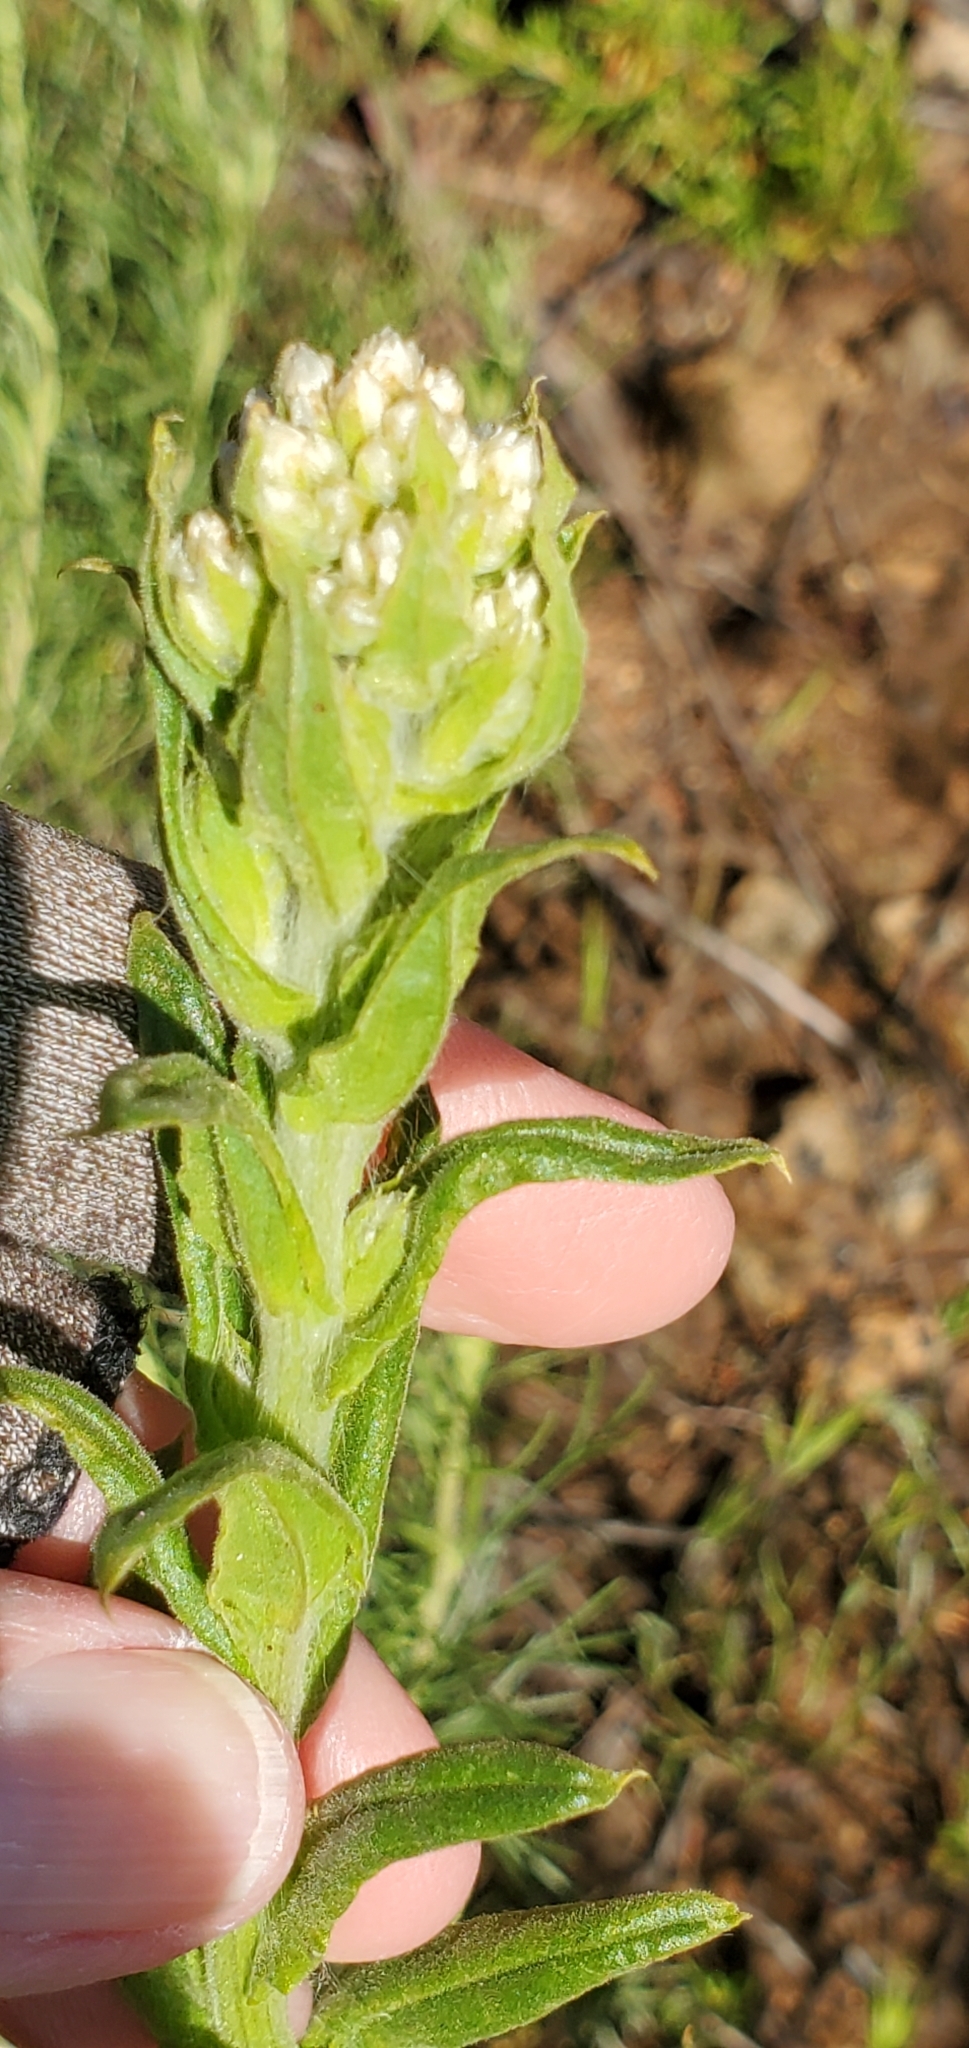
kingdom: Plantae
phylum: Tracheophyta
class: Magnoliopsida
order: Asterales
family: Asteraceae
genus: Pseudognaphalium
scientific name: Pseudognaphalium californicum
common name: California rabbit-tobacco
